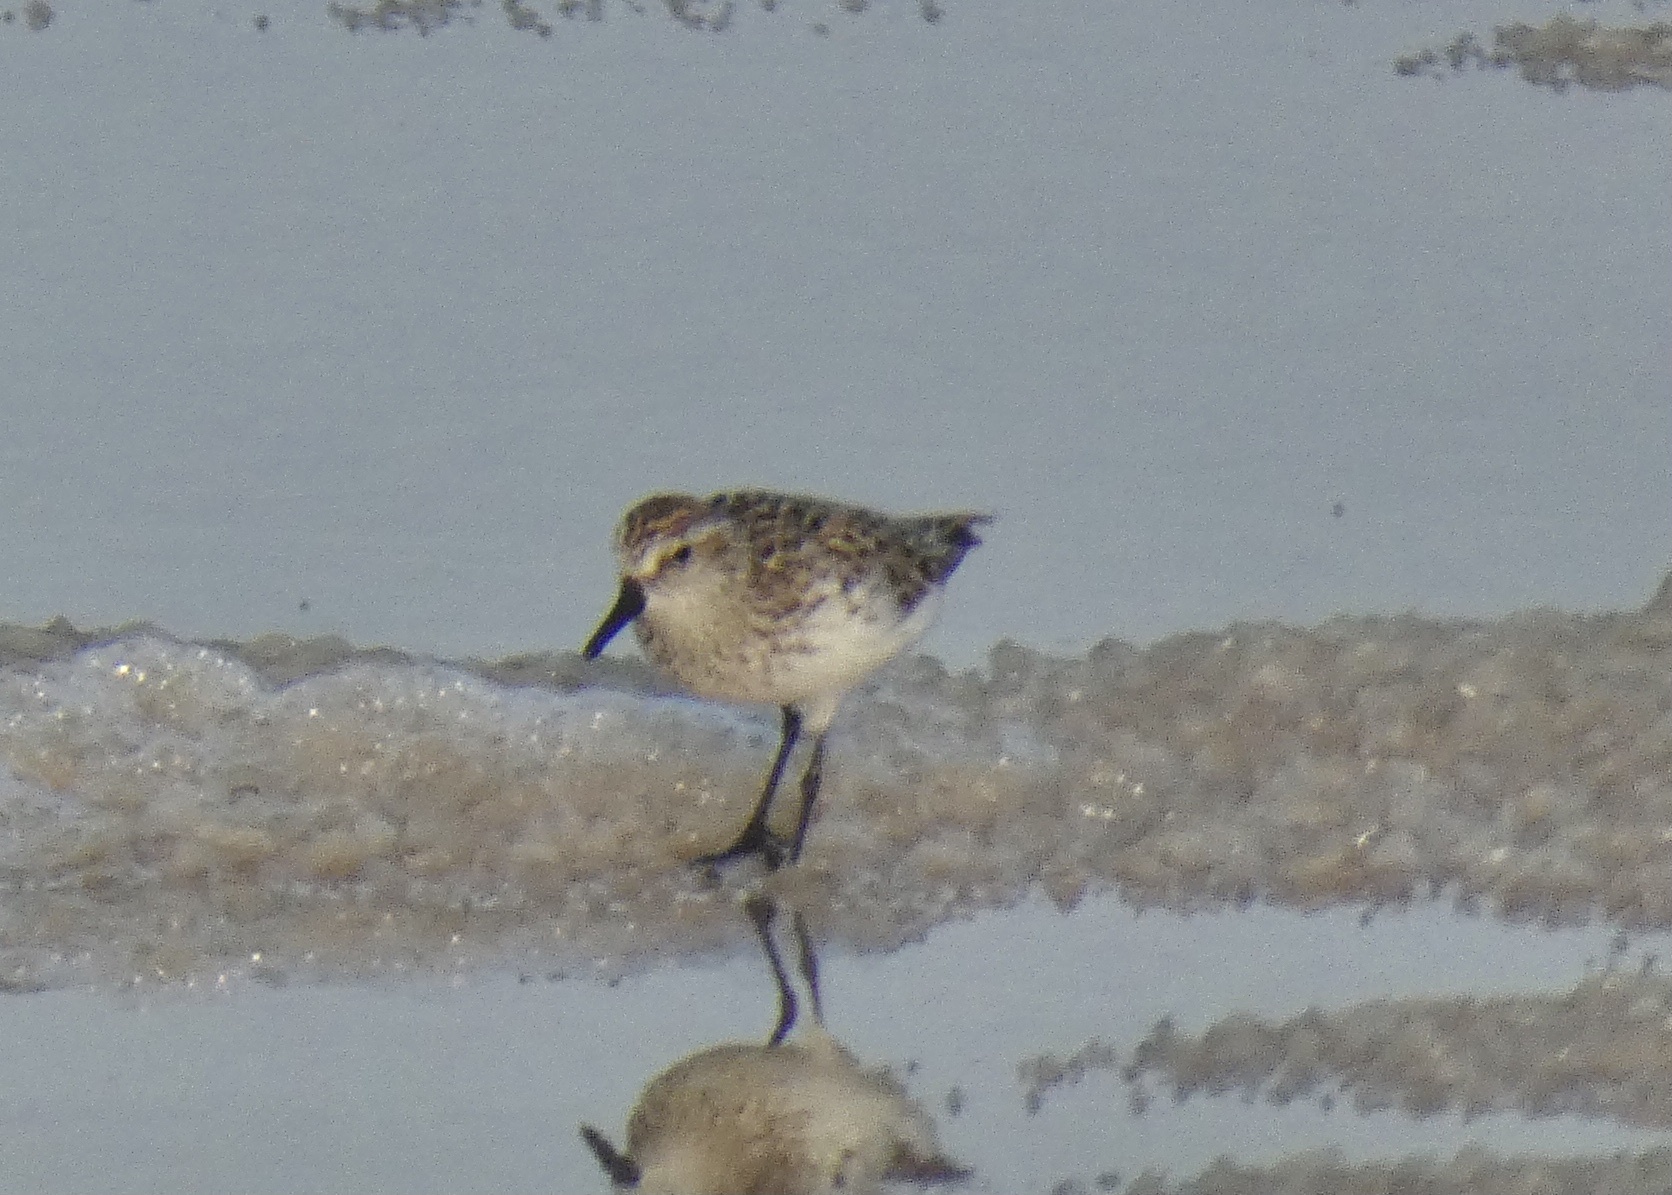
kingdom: Animalia
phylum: Chordata
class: Aves
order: Charadriiformes
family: Scolopacidae
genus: Calidris
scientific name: Calidris pusilla
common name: Semipalmated sandpiper
